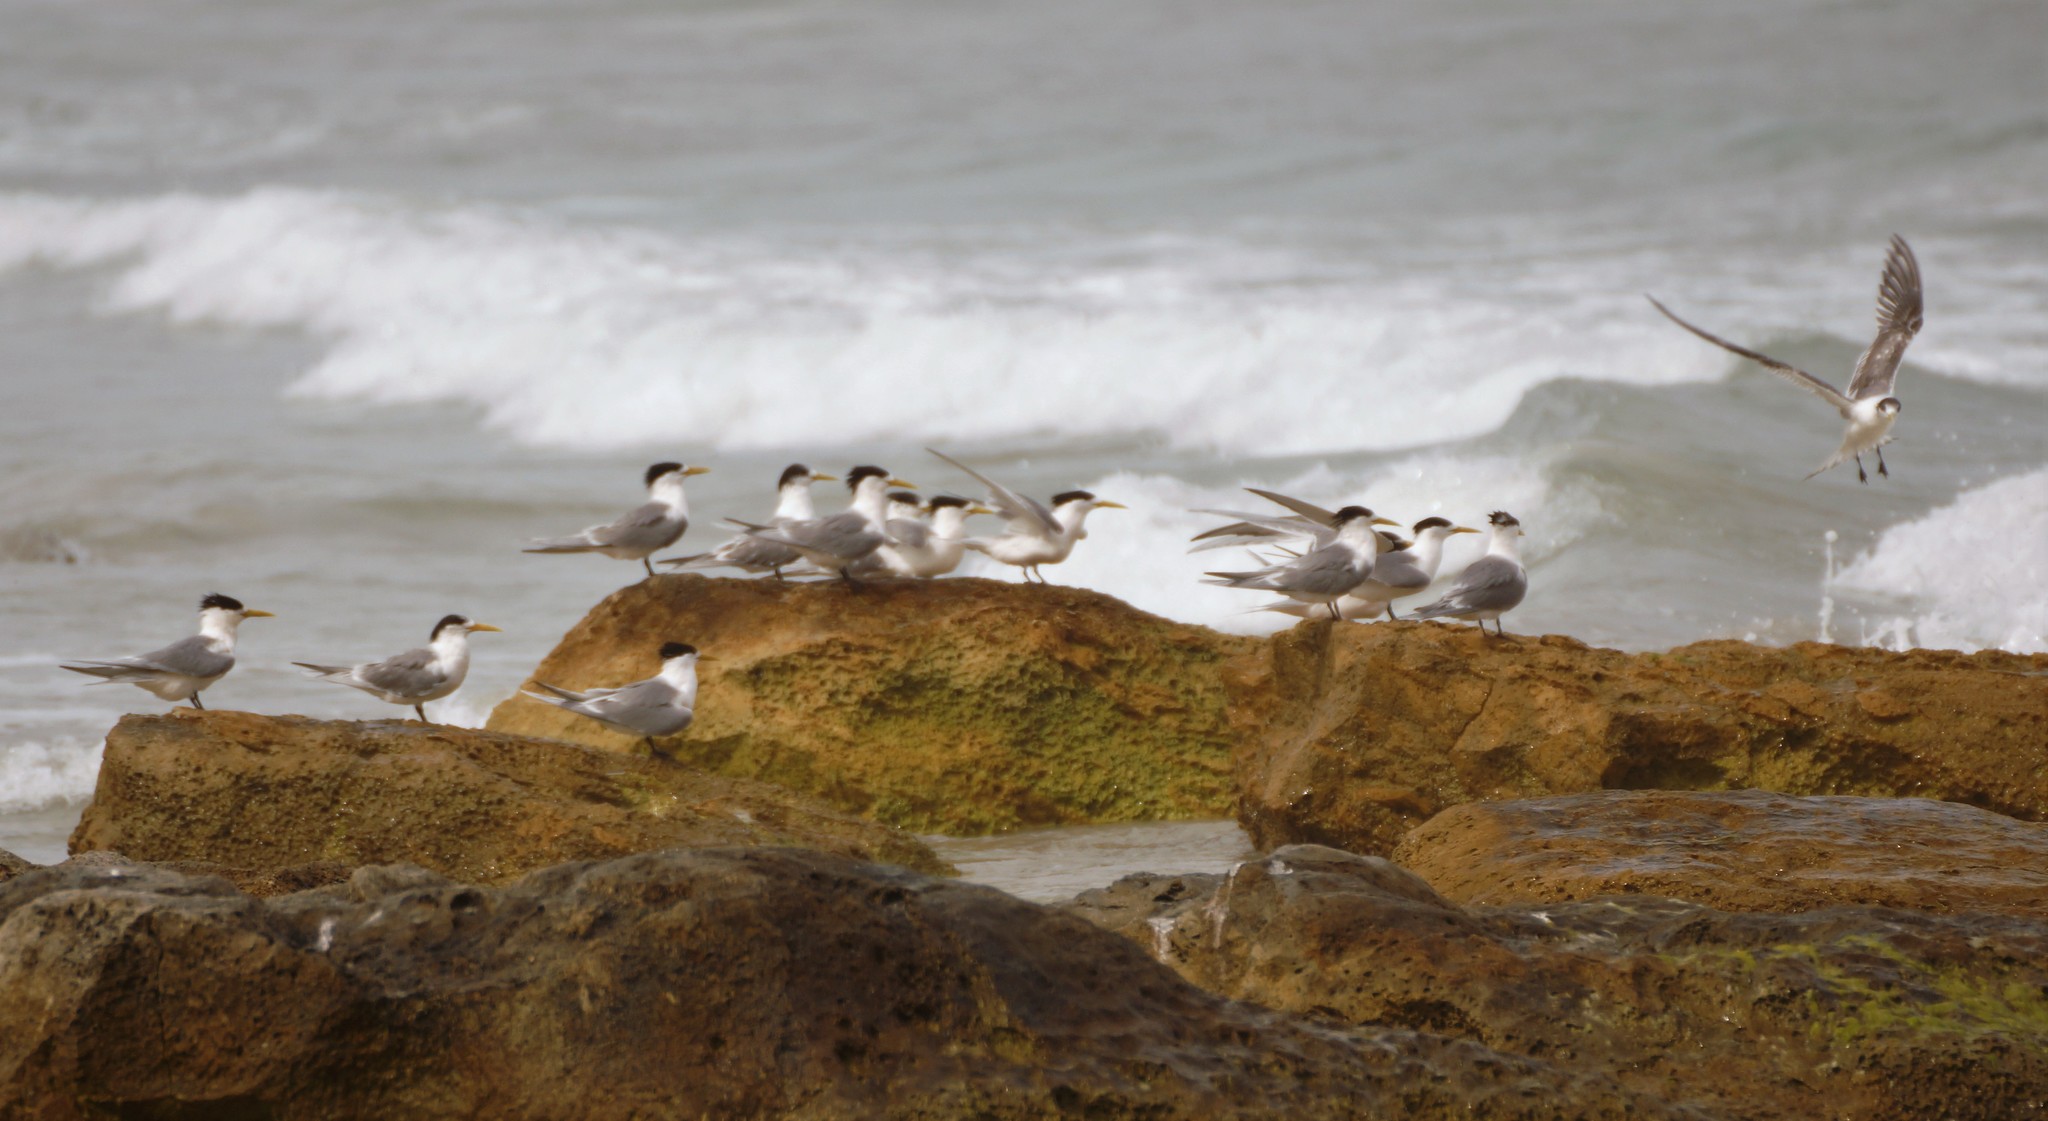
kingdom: Animalia
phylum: Chordata
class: Aves
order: Charadriiformes
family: Laridae
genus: Thalasseus
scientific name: Thalasseus bergii
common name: Greater crested tern
